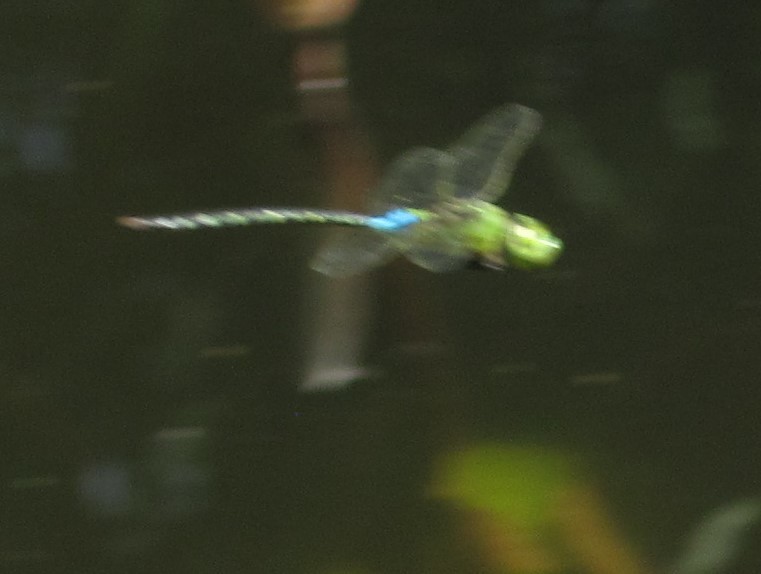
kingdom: Animalia
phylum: Arthropoda
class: Insecta
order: Odonata
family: Aeshnidae
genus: Anax
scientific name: Anax guttatus
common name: Emperor
